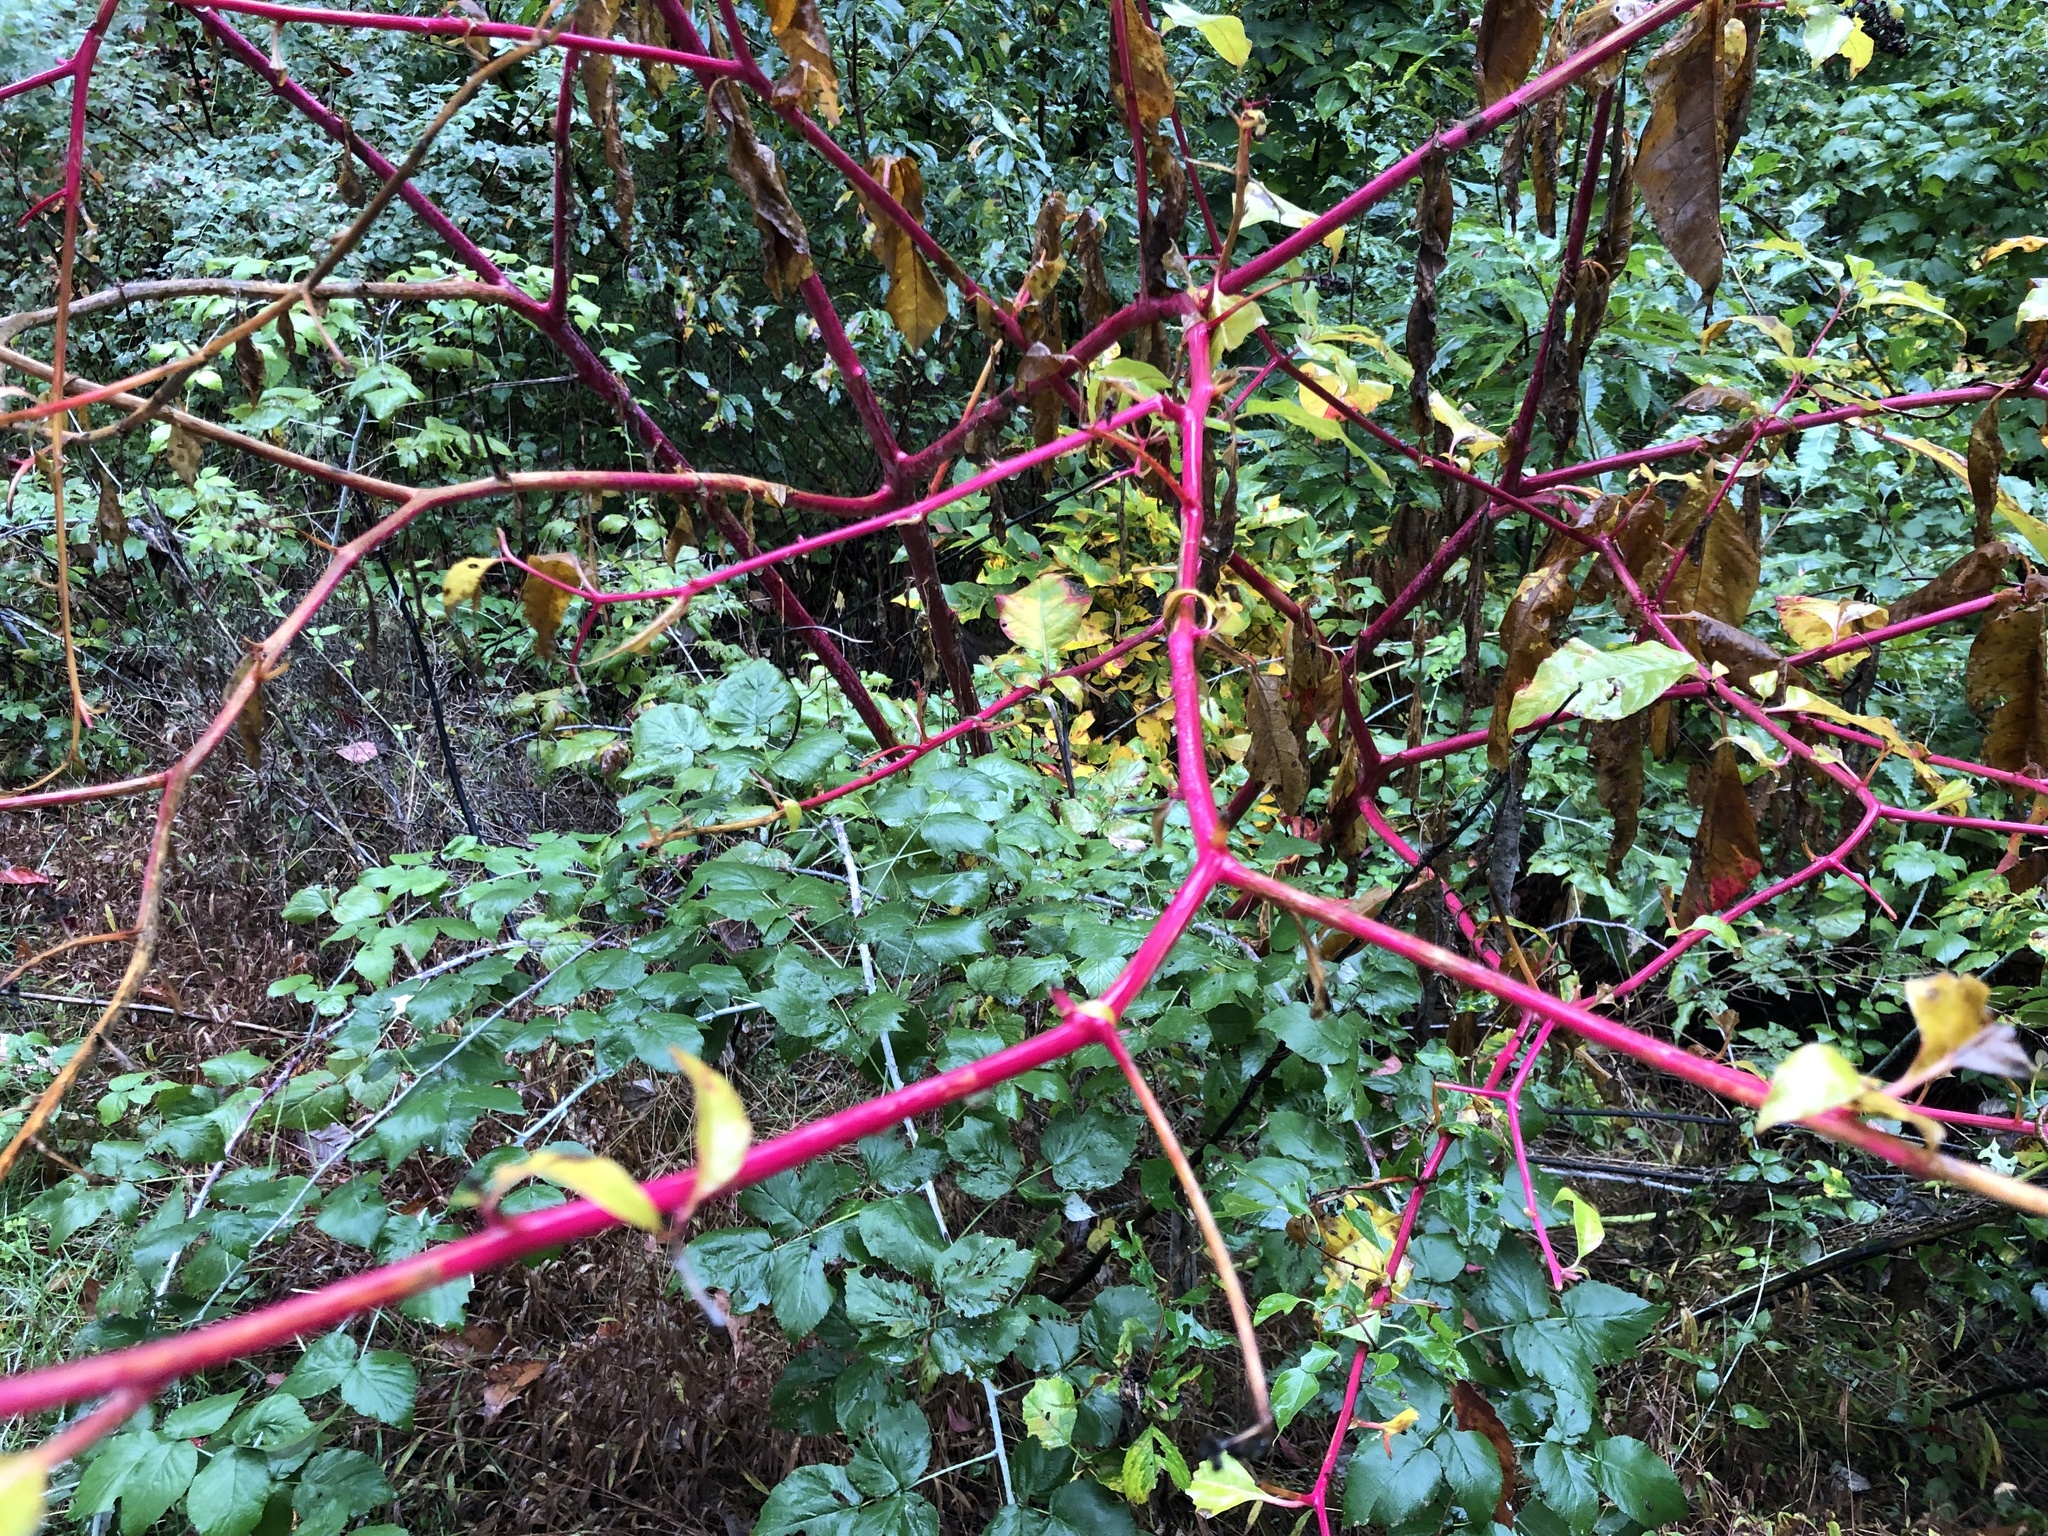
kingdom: Plantae
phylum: Tracheophyta
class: Magnoliopsida
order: Caryophyllales
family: Phytolaccaceae
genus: Phytolacca
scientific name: Phytolacca americana
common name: American pokeweed
